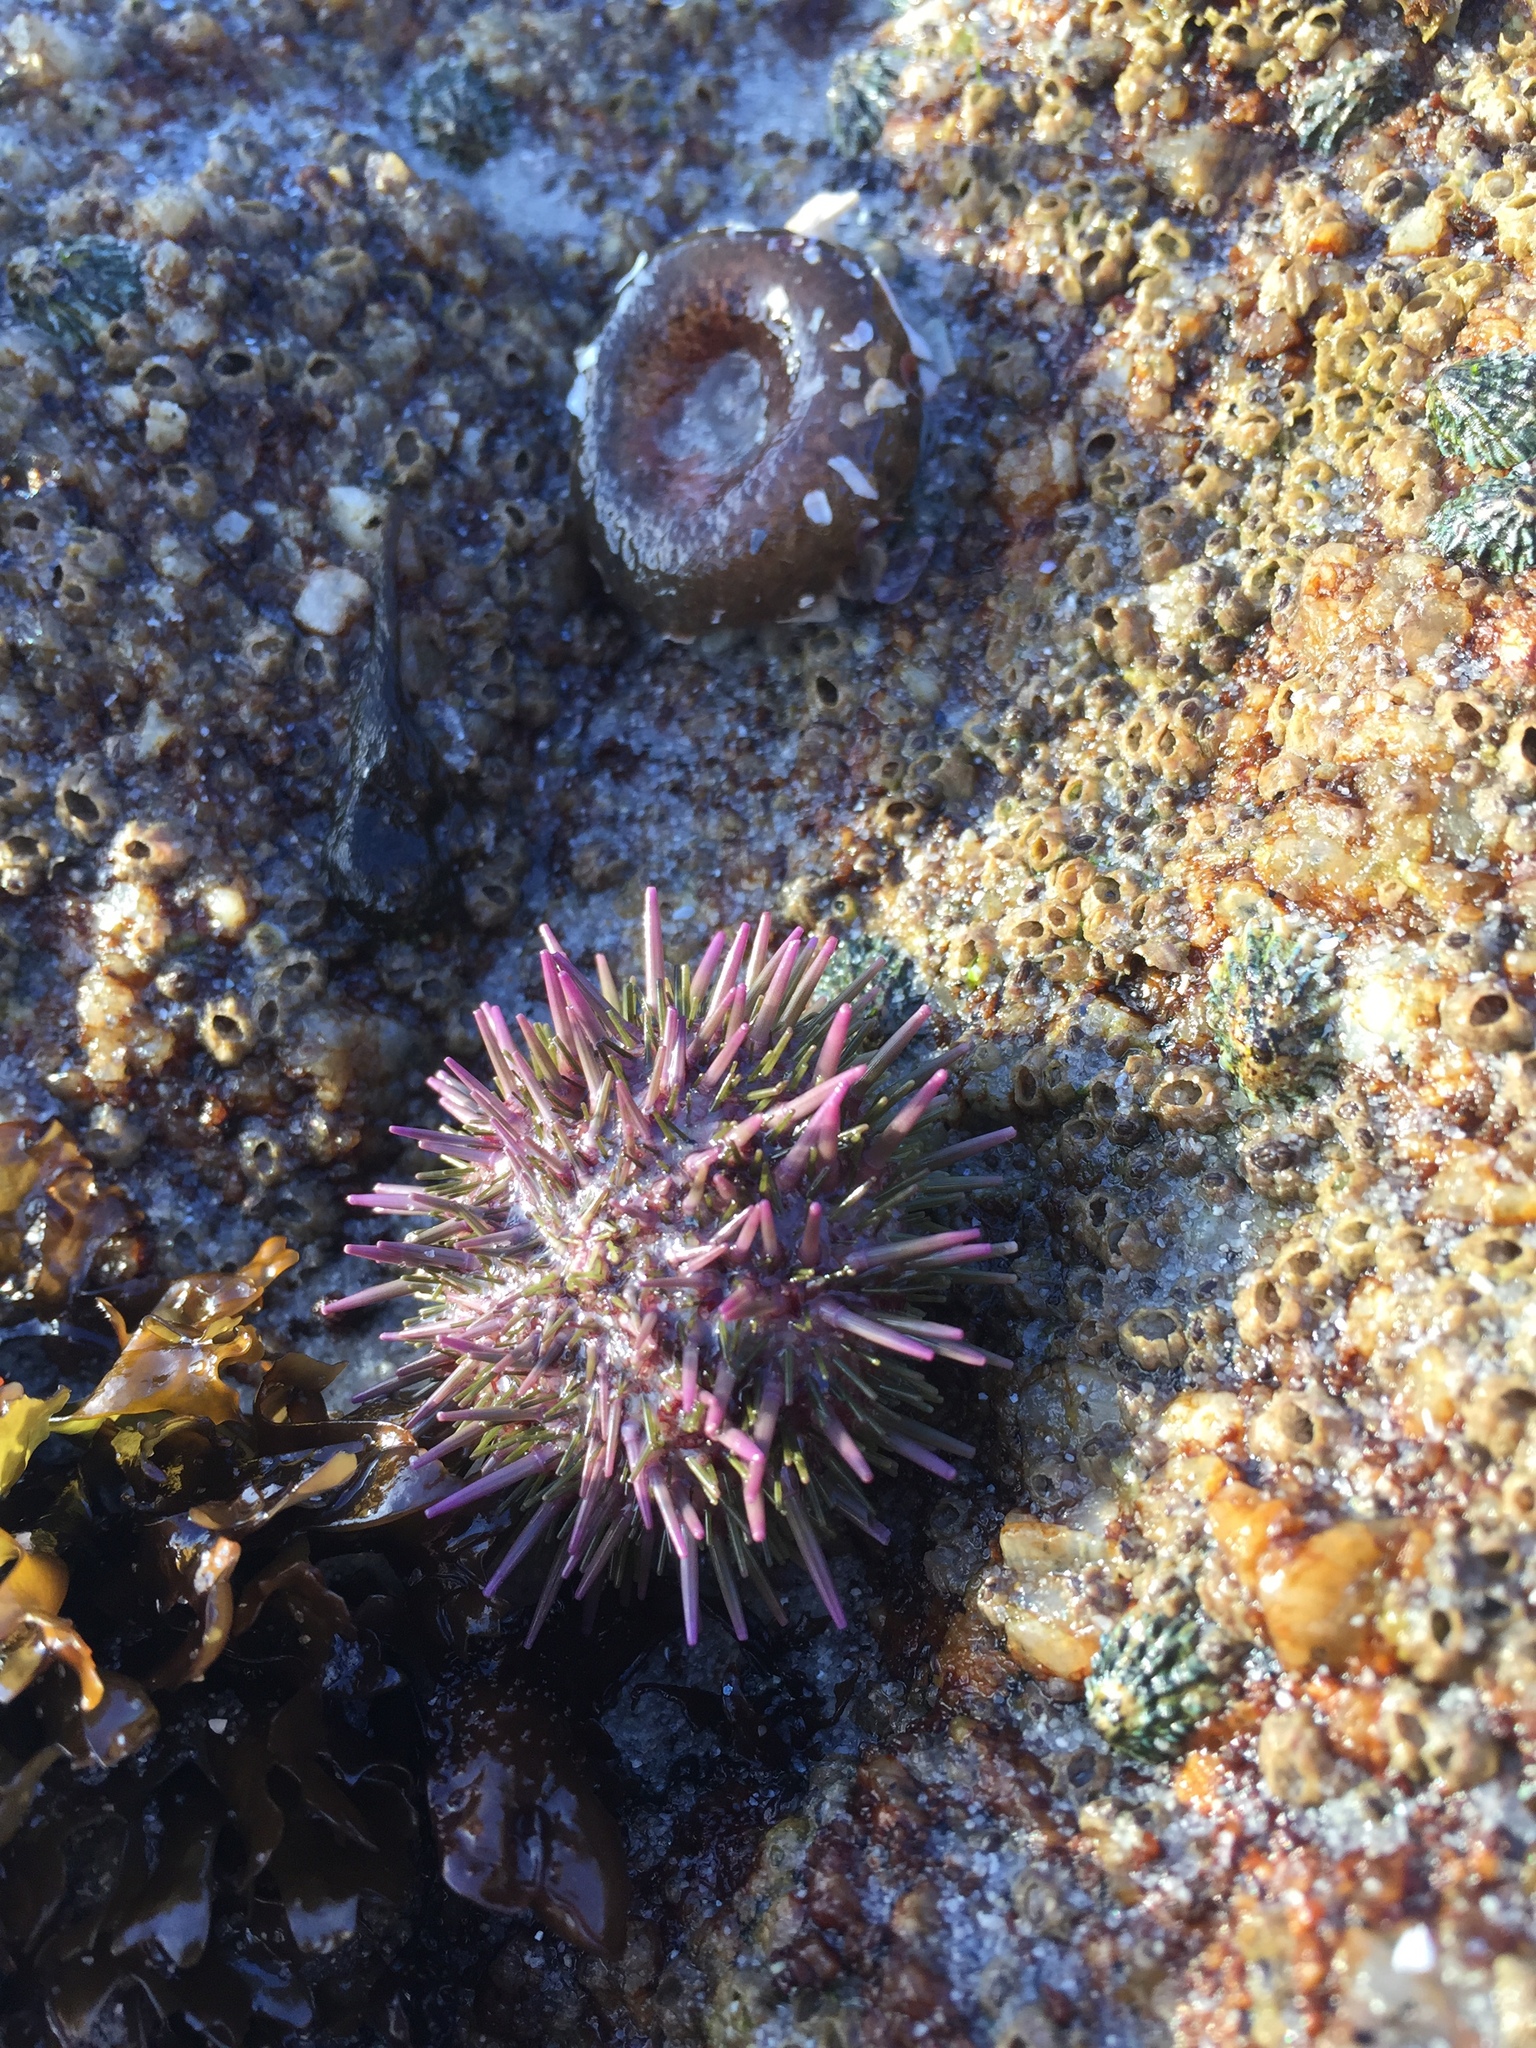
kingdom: Animalia
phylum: Echinodermata
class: Echinoidea
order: Camarodonta
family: Strongylocentrotidae
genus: Strongylocentrotus
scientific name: Strongylocentrotus purpuratus
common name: Purple sea urchin
